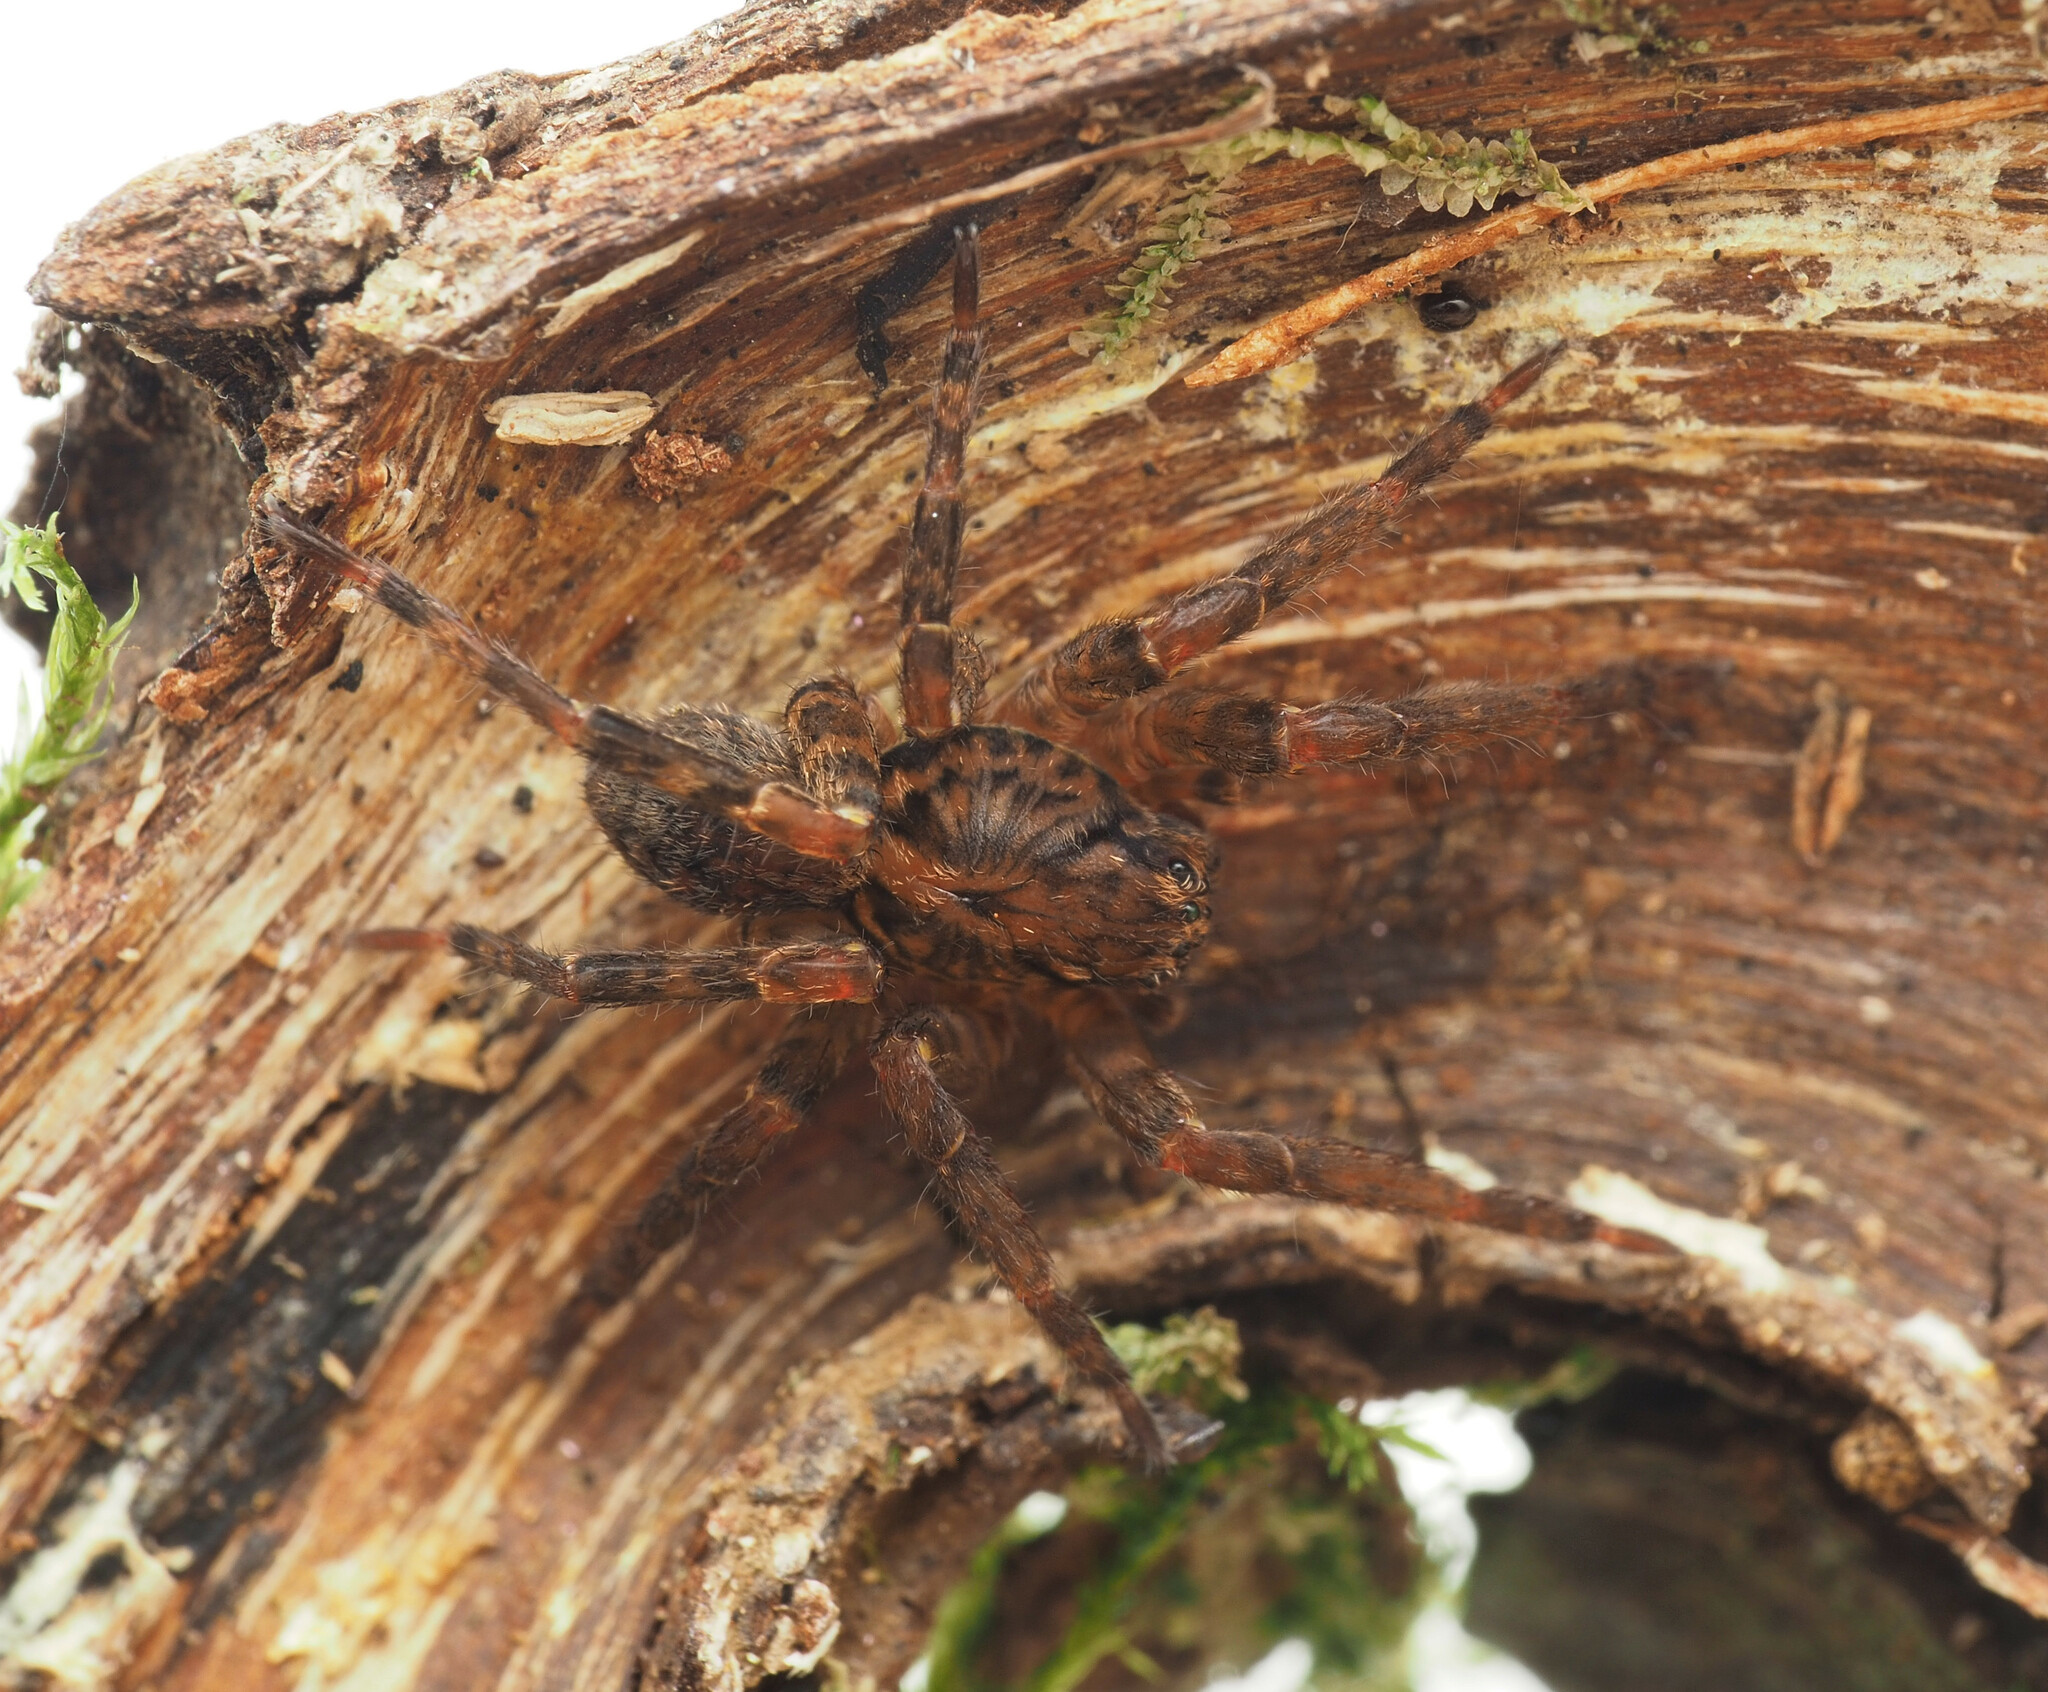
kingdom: Animalia
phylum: Arthropoda
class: Arachnida
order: Araneae
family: Zoropsidae
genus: Kilyana
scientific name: Kilyana ingrami
